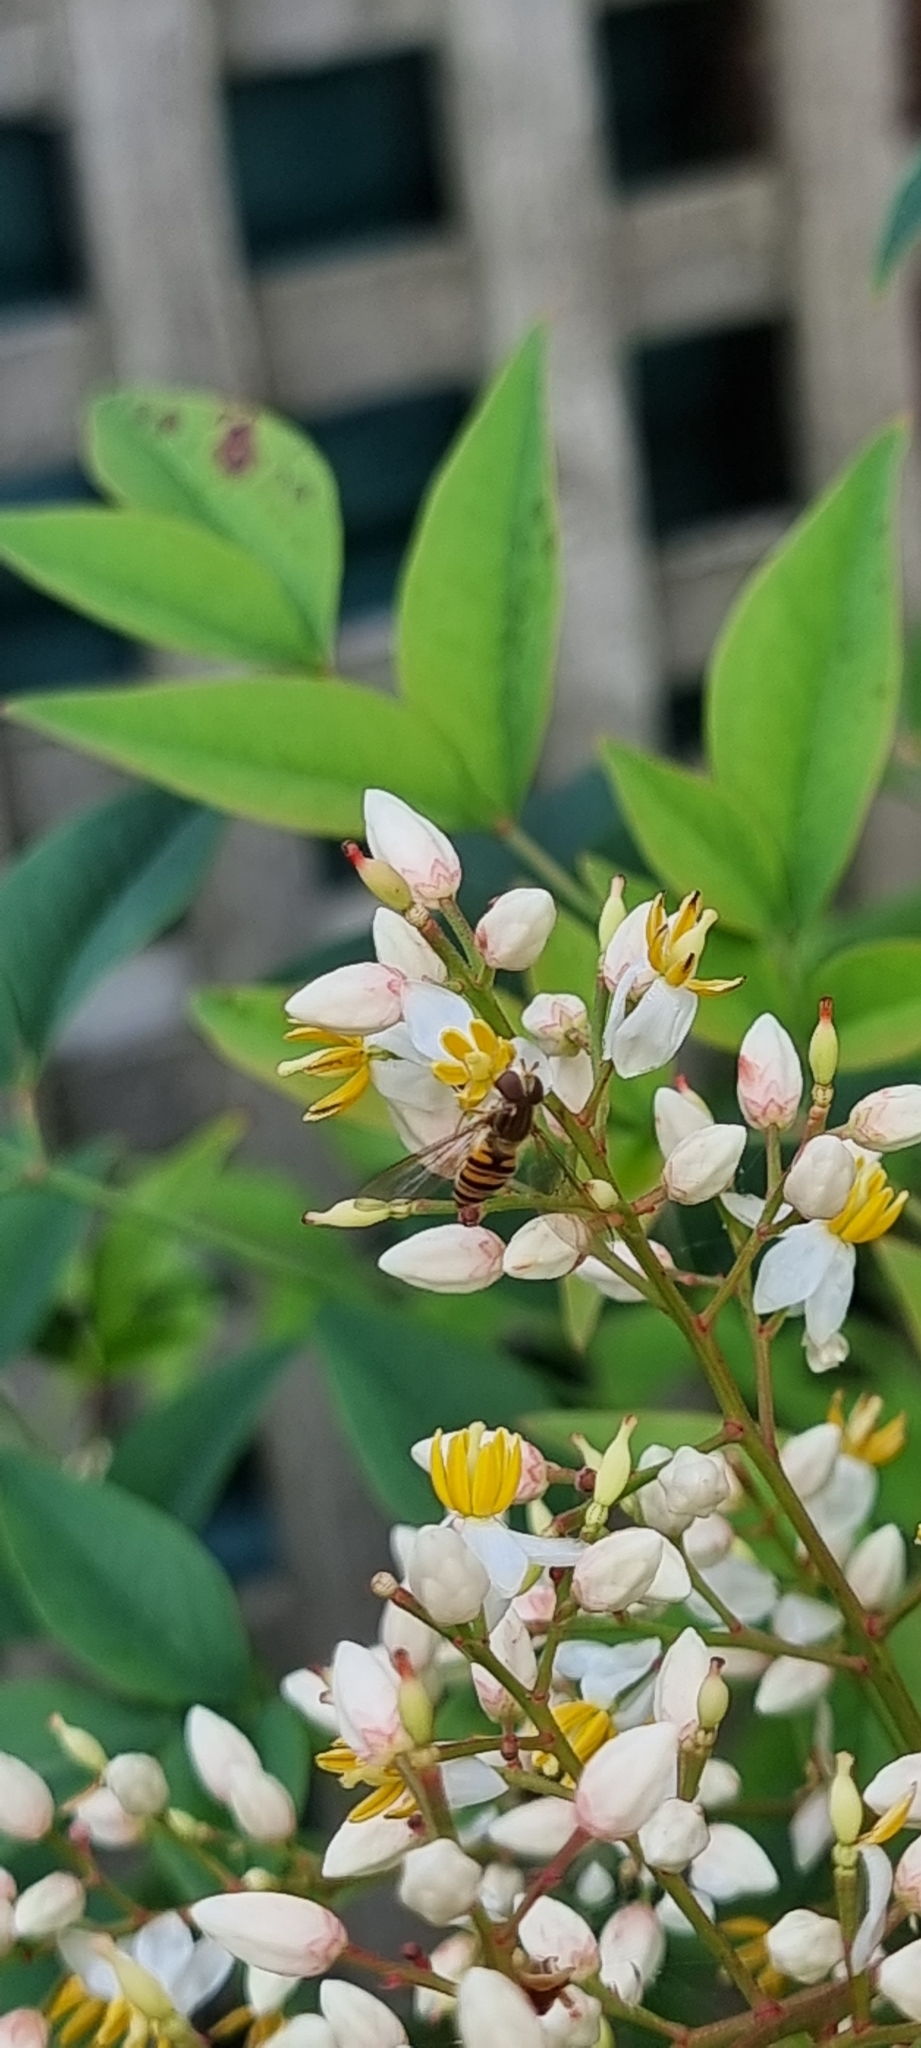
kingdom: Animalia
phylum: Arthropoda
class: Insecta
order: Diptera
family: Syrphidae
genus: Episyrphus
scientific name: Episyrphus balteatus
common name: Marmalade hoverfly
